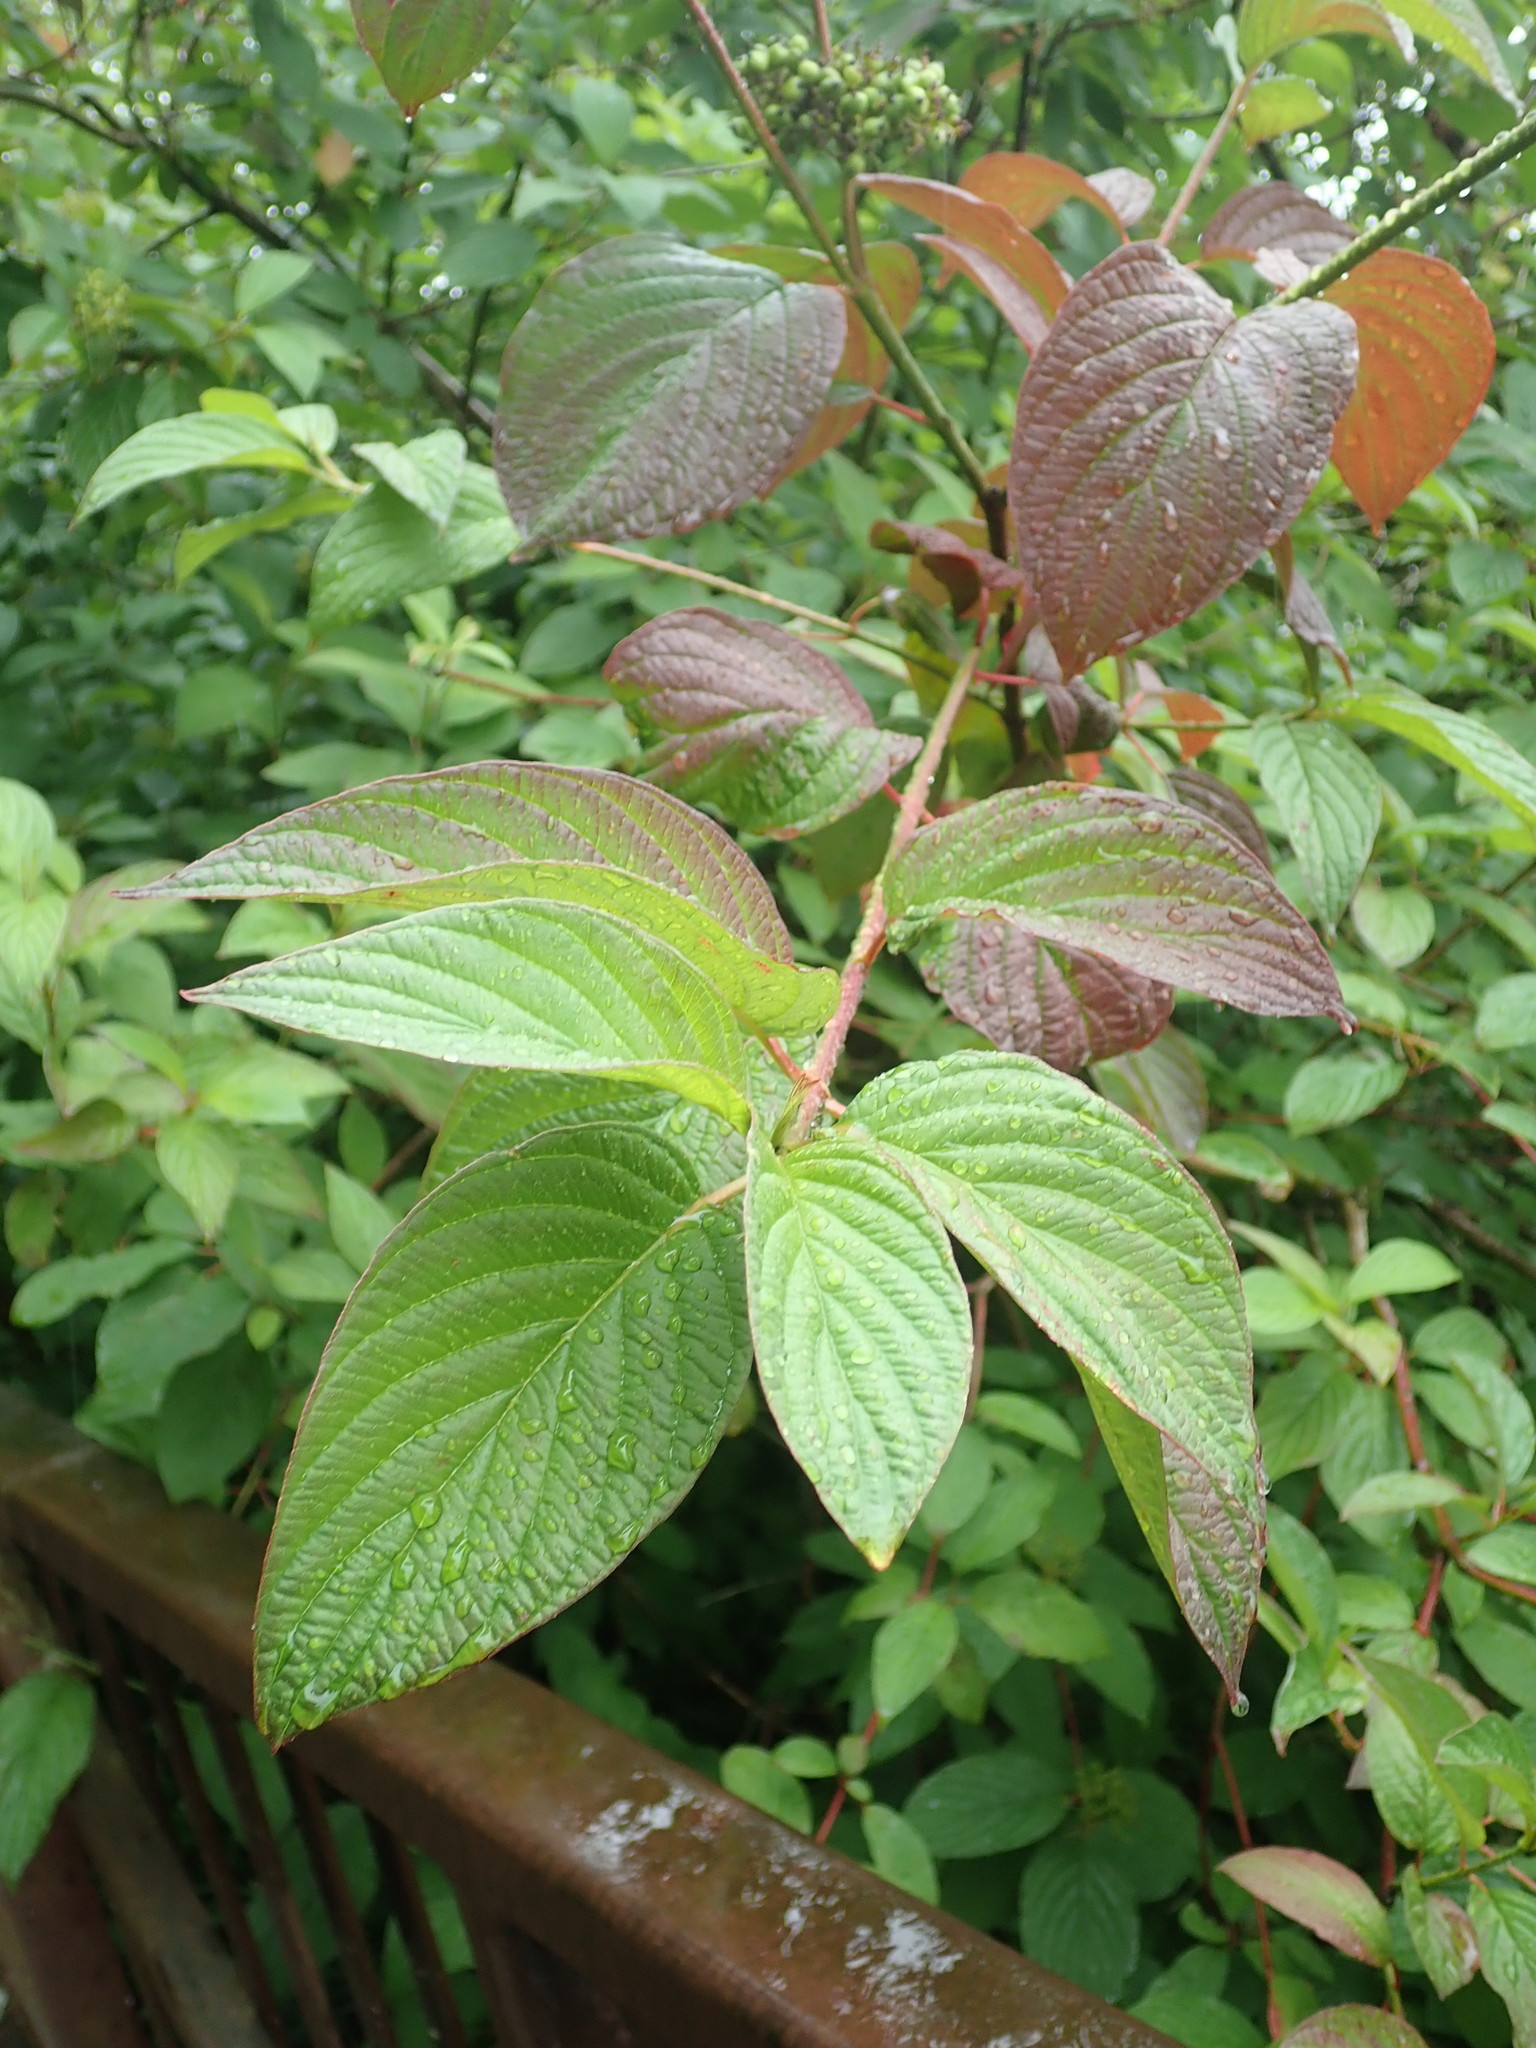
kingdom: Plantae
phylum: Tracheophyta
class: Magnoliopsida
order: Cornales
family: Cornaceae
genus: Cornus
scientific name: Cornus sericea
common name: Red-osier dogwood
